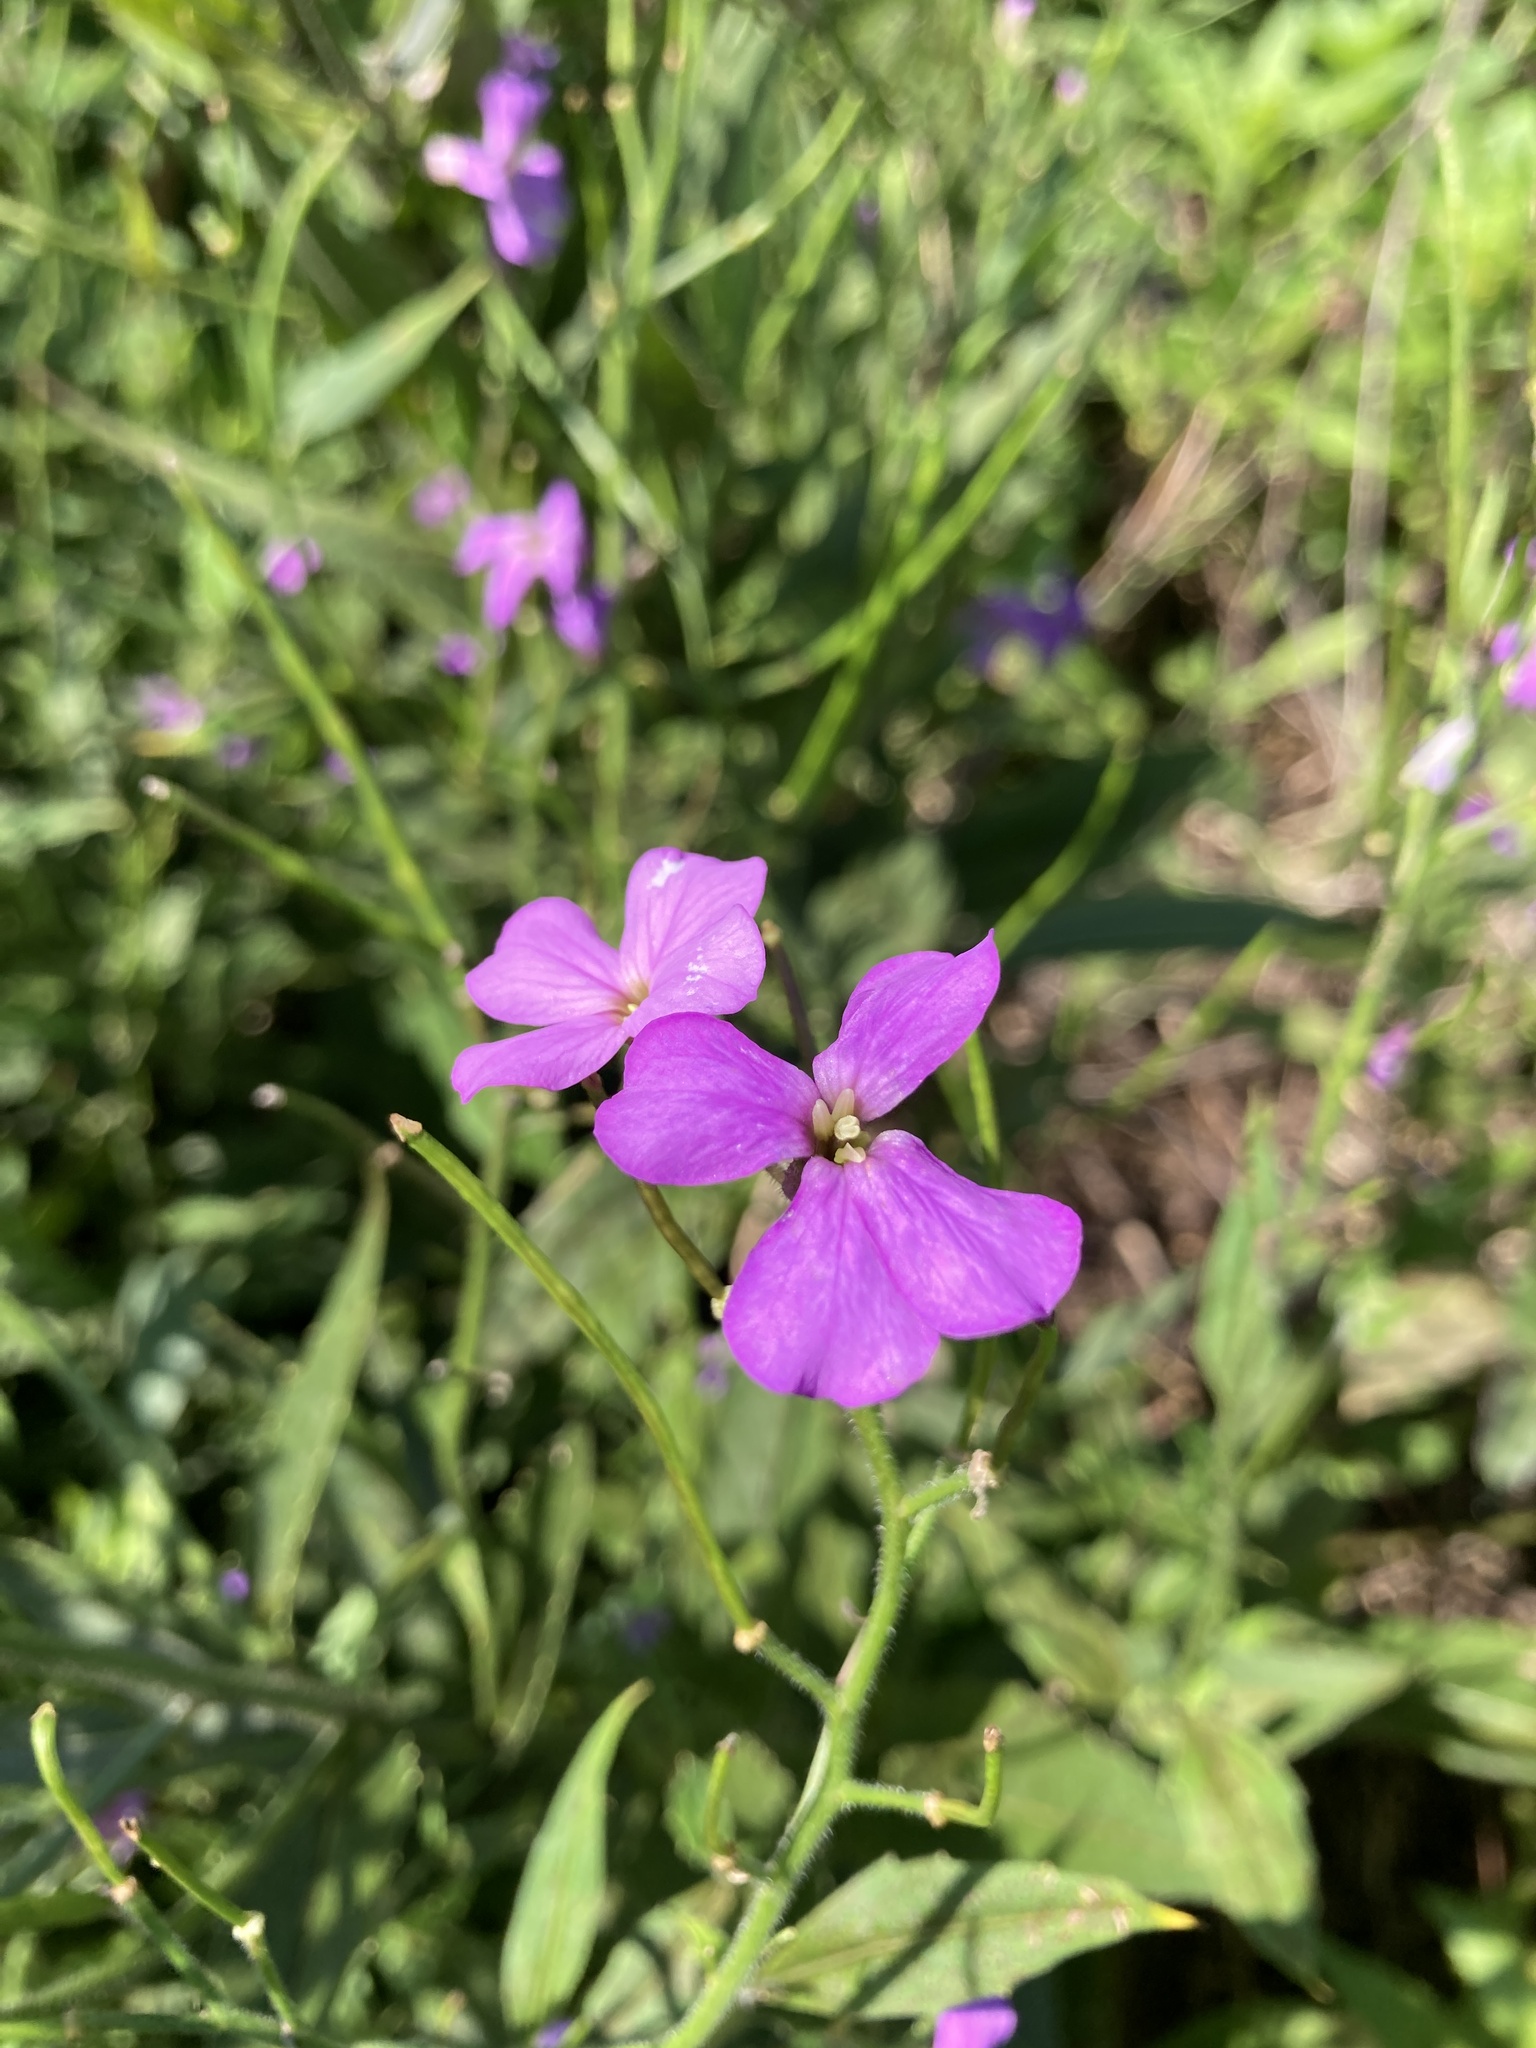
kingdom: Plantae
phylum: Tracheophyta
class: Magnoliopsida
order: Brassicales
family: Brassicaceae
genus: Hesperis
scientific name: Hesperis matronalis
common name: Dame's-violet
